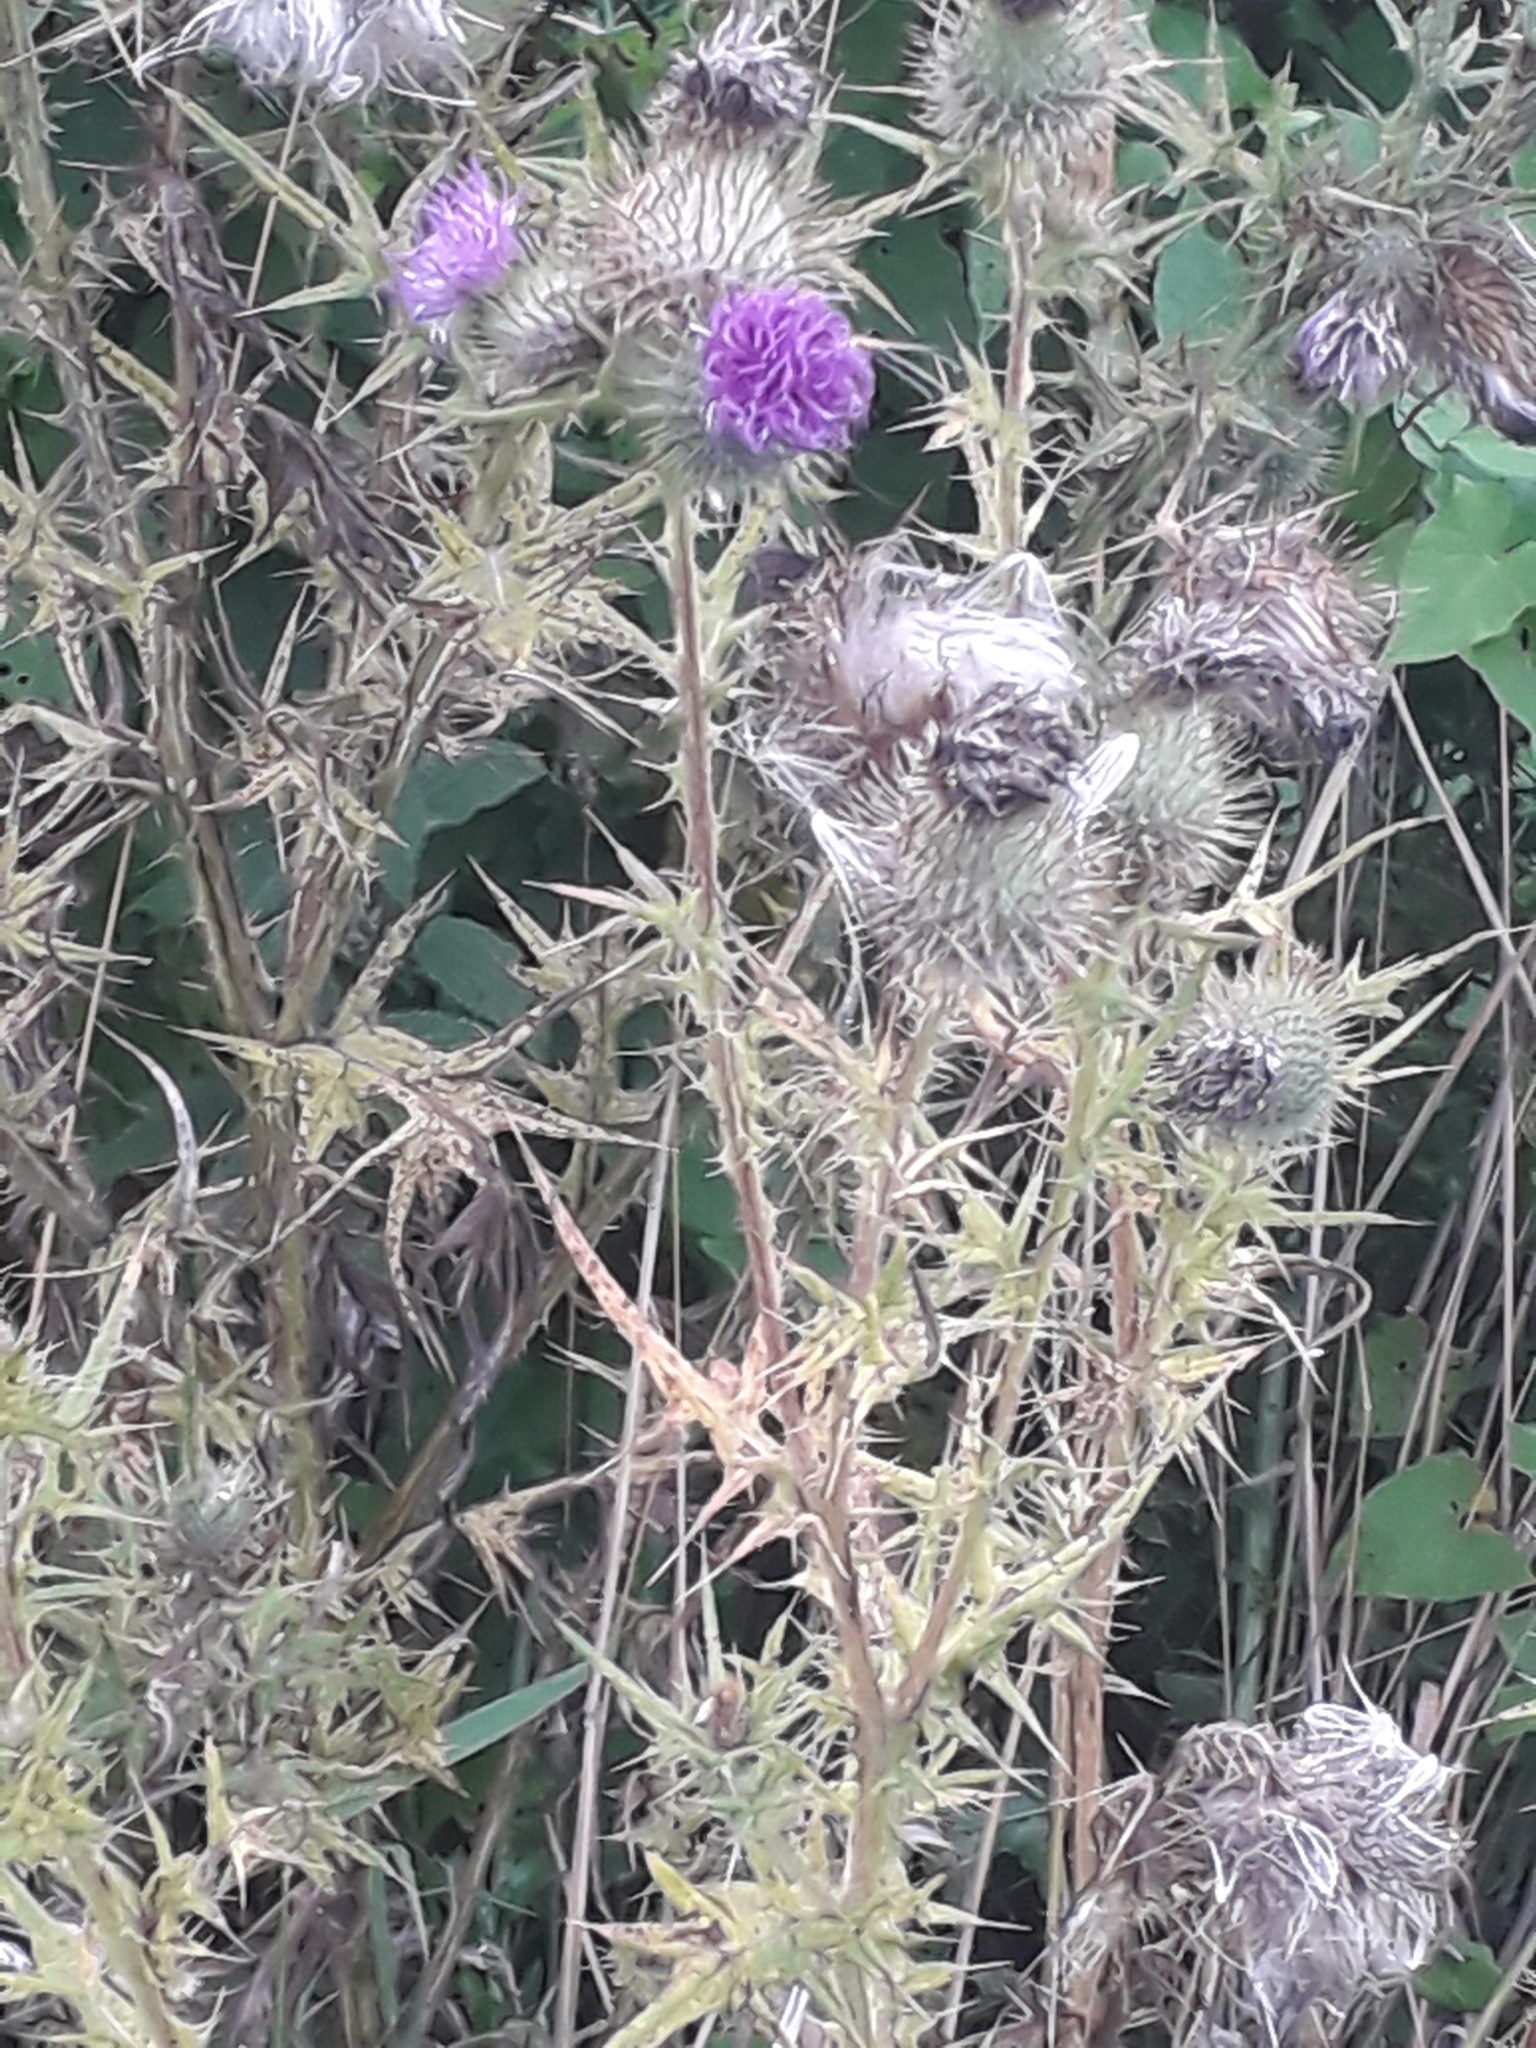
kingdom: Plantae
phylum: Tracheophyta
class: Magnoliopsida
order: Asterales
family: Asteraceae
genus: Cirsium
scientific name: Cirsium vulgare
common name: Bull thistle
